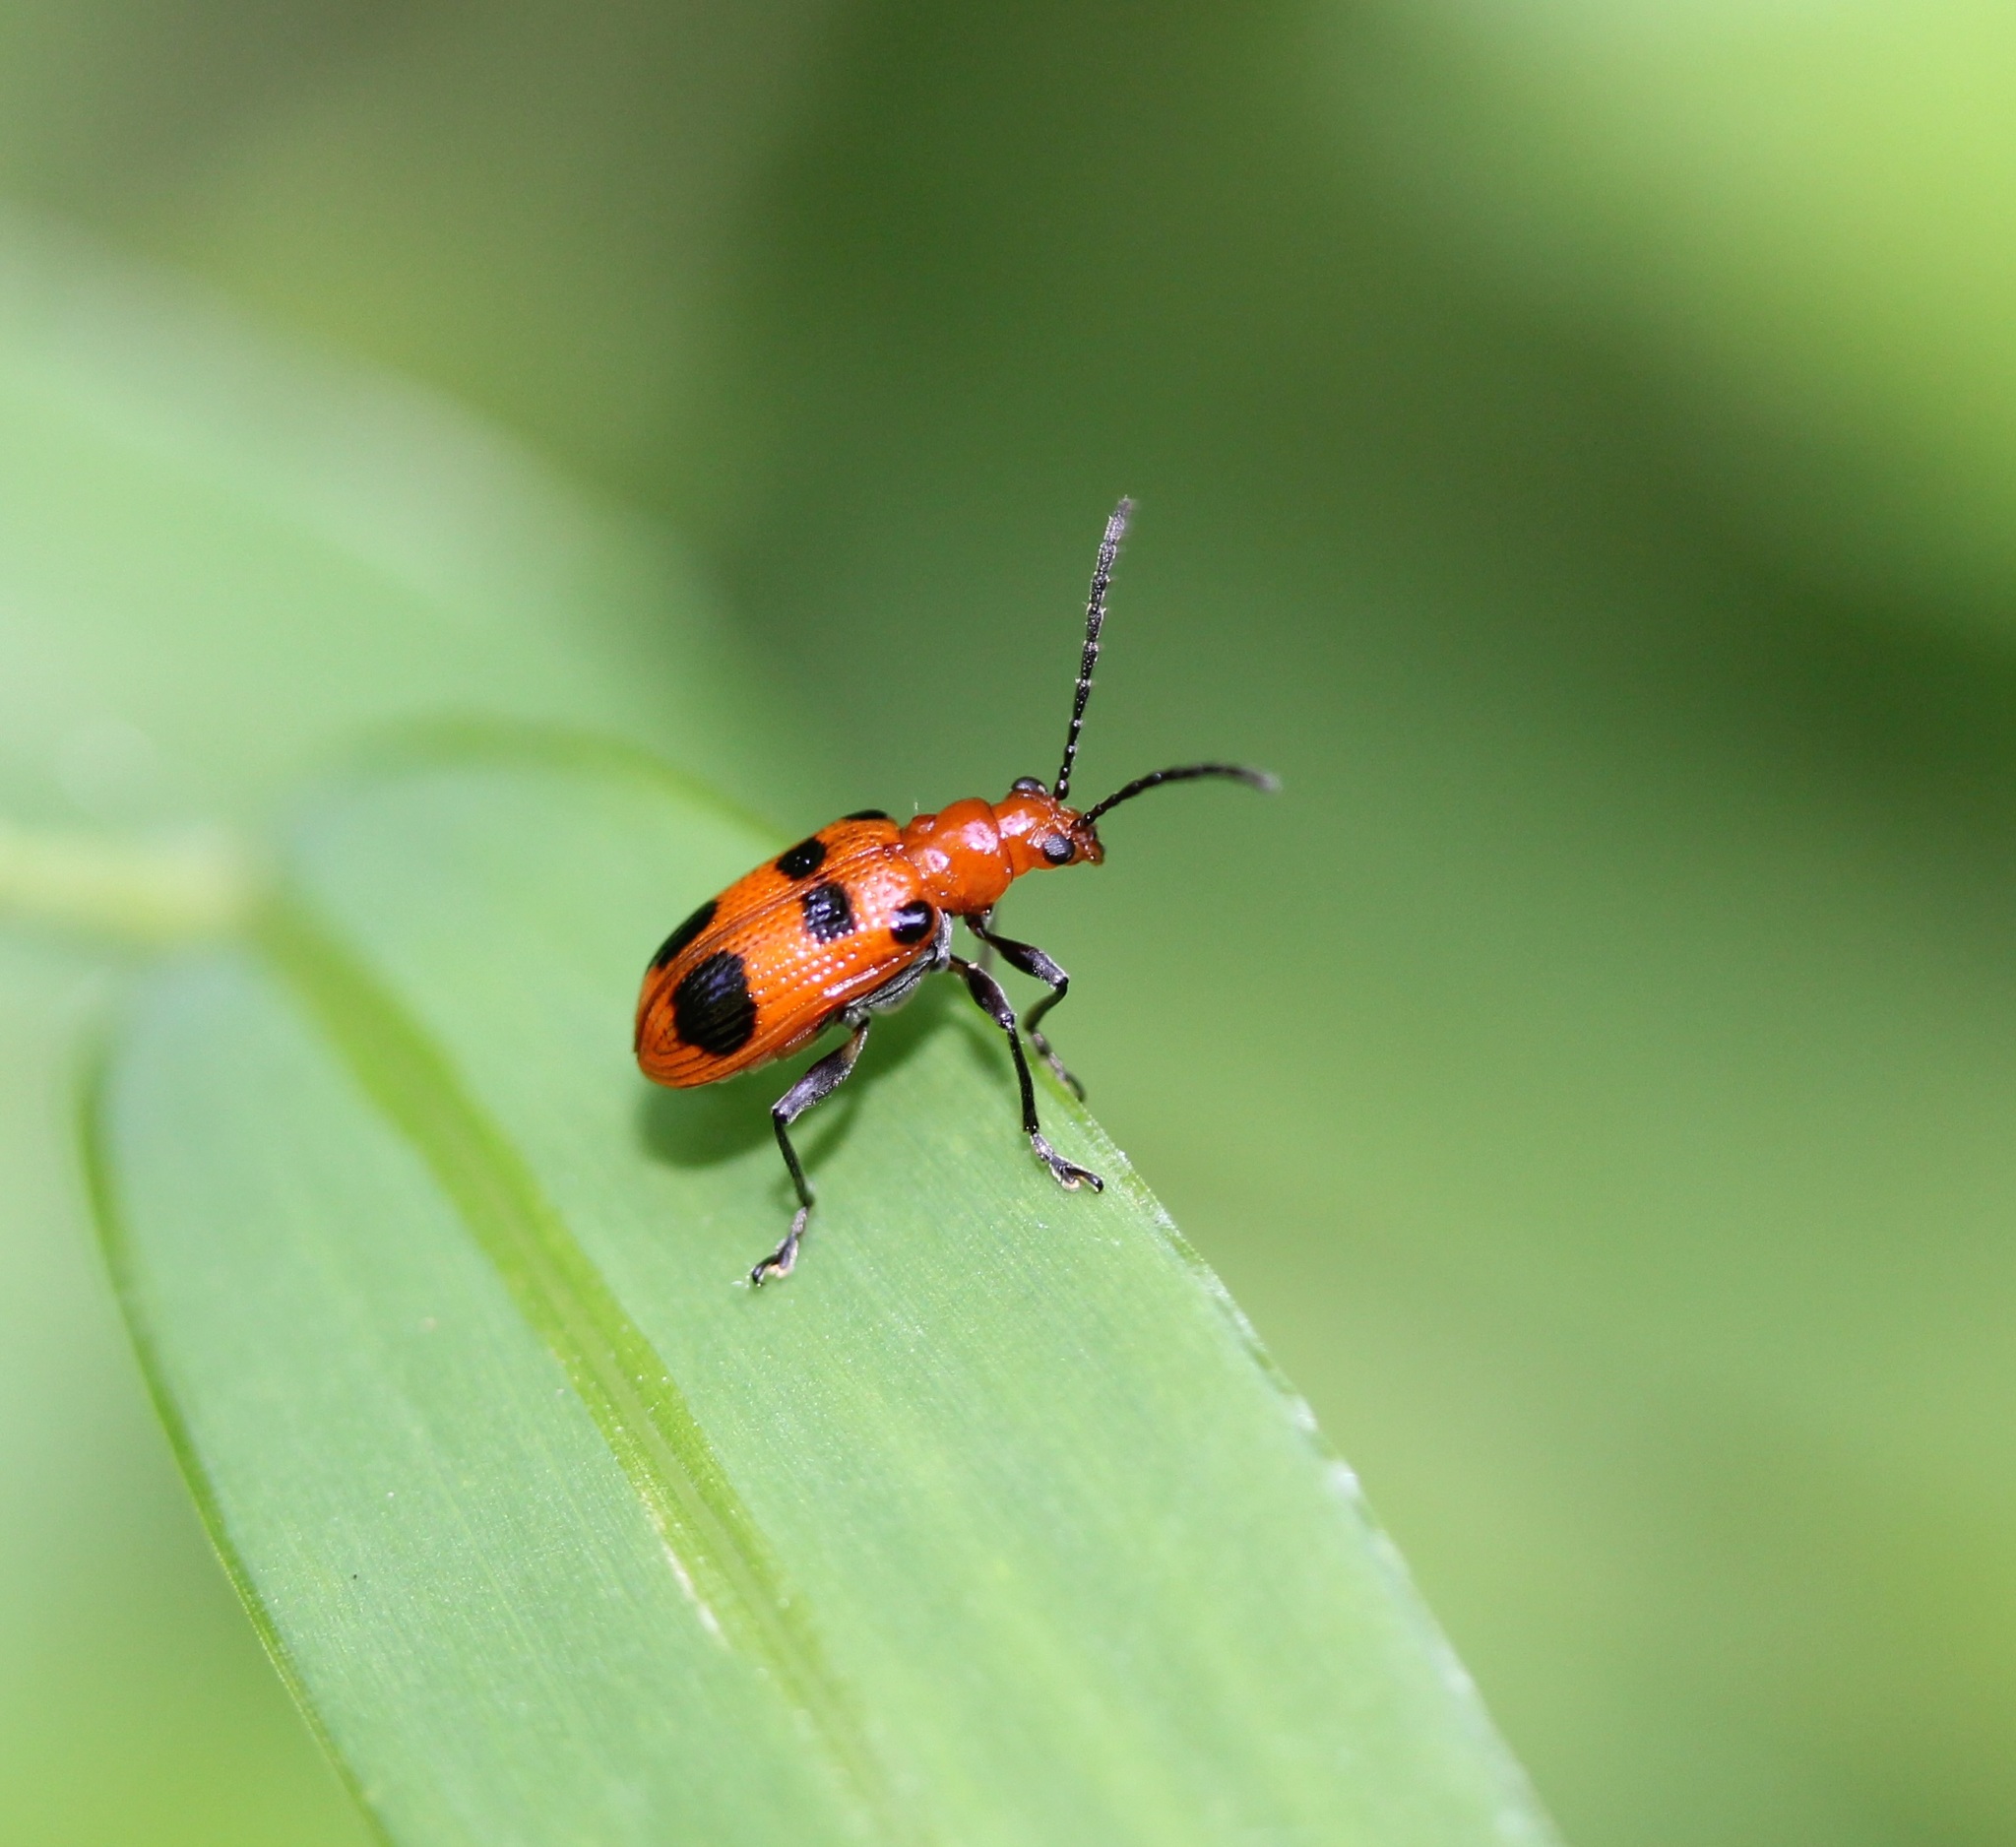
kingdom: Animalia
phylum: Arthropoda
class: Insecta
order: Coleoptera
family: Chrysomelidae
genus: Neolema
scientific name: Neolema sexpunctata
